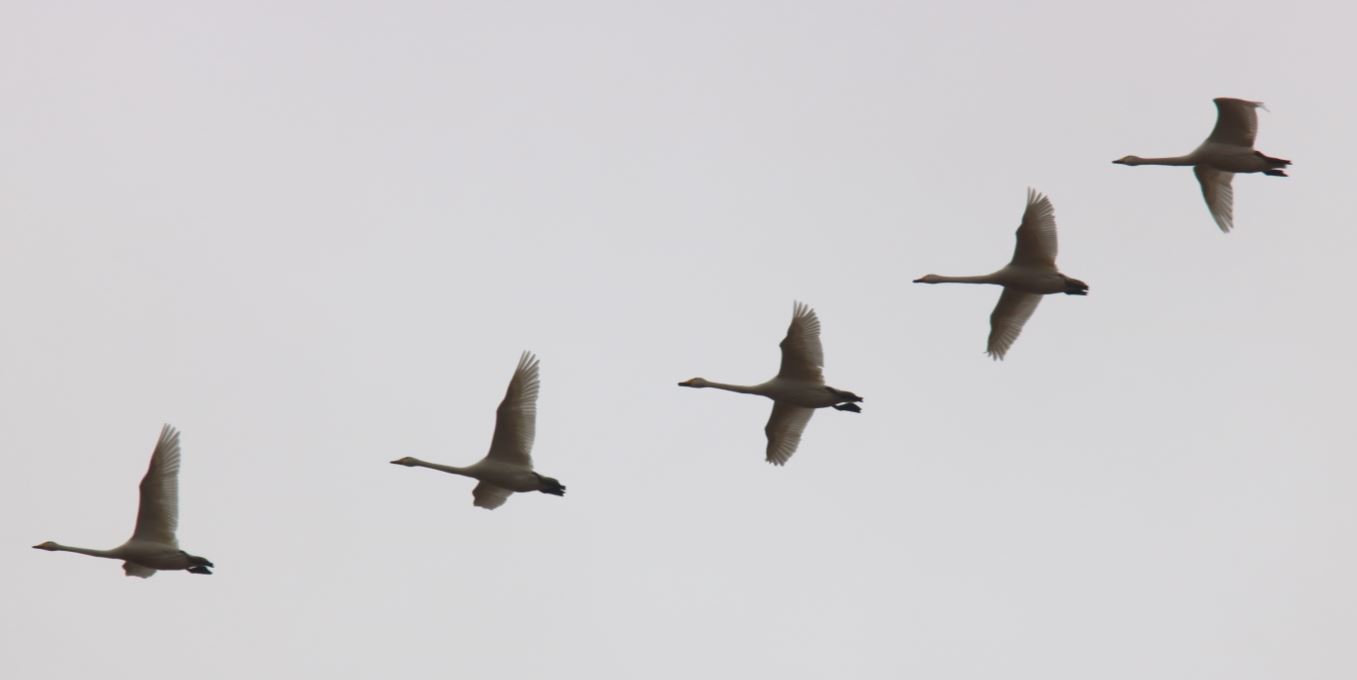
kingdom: Animalia
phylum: Chordata
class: Aves
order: Anseriformes
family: Anatidae
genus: Cygnus
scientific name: Cygnus cygnus
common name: Whooper swan
